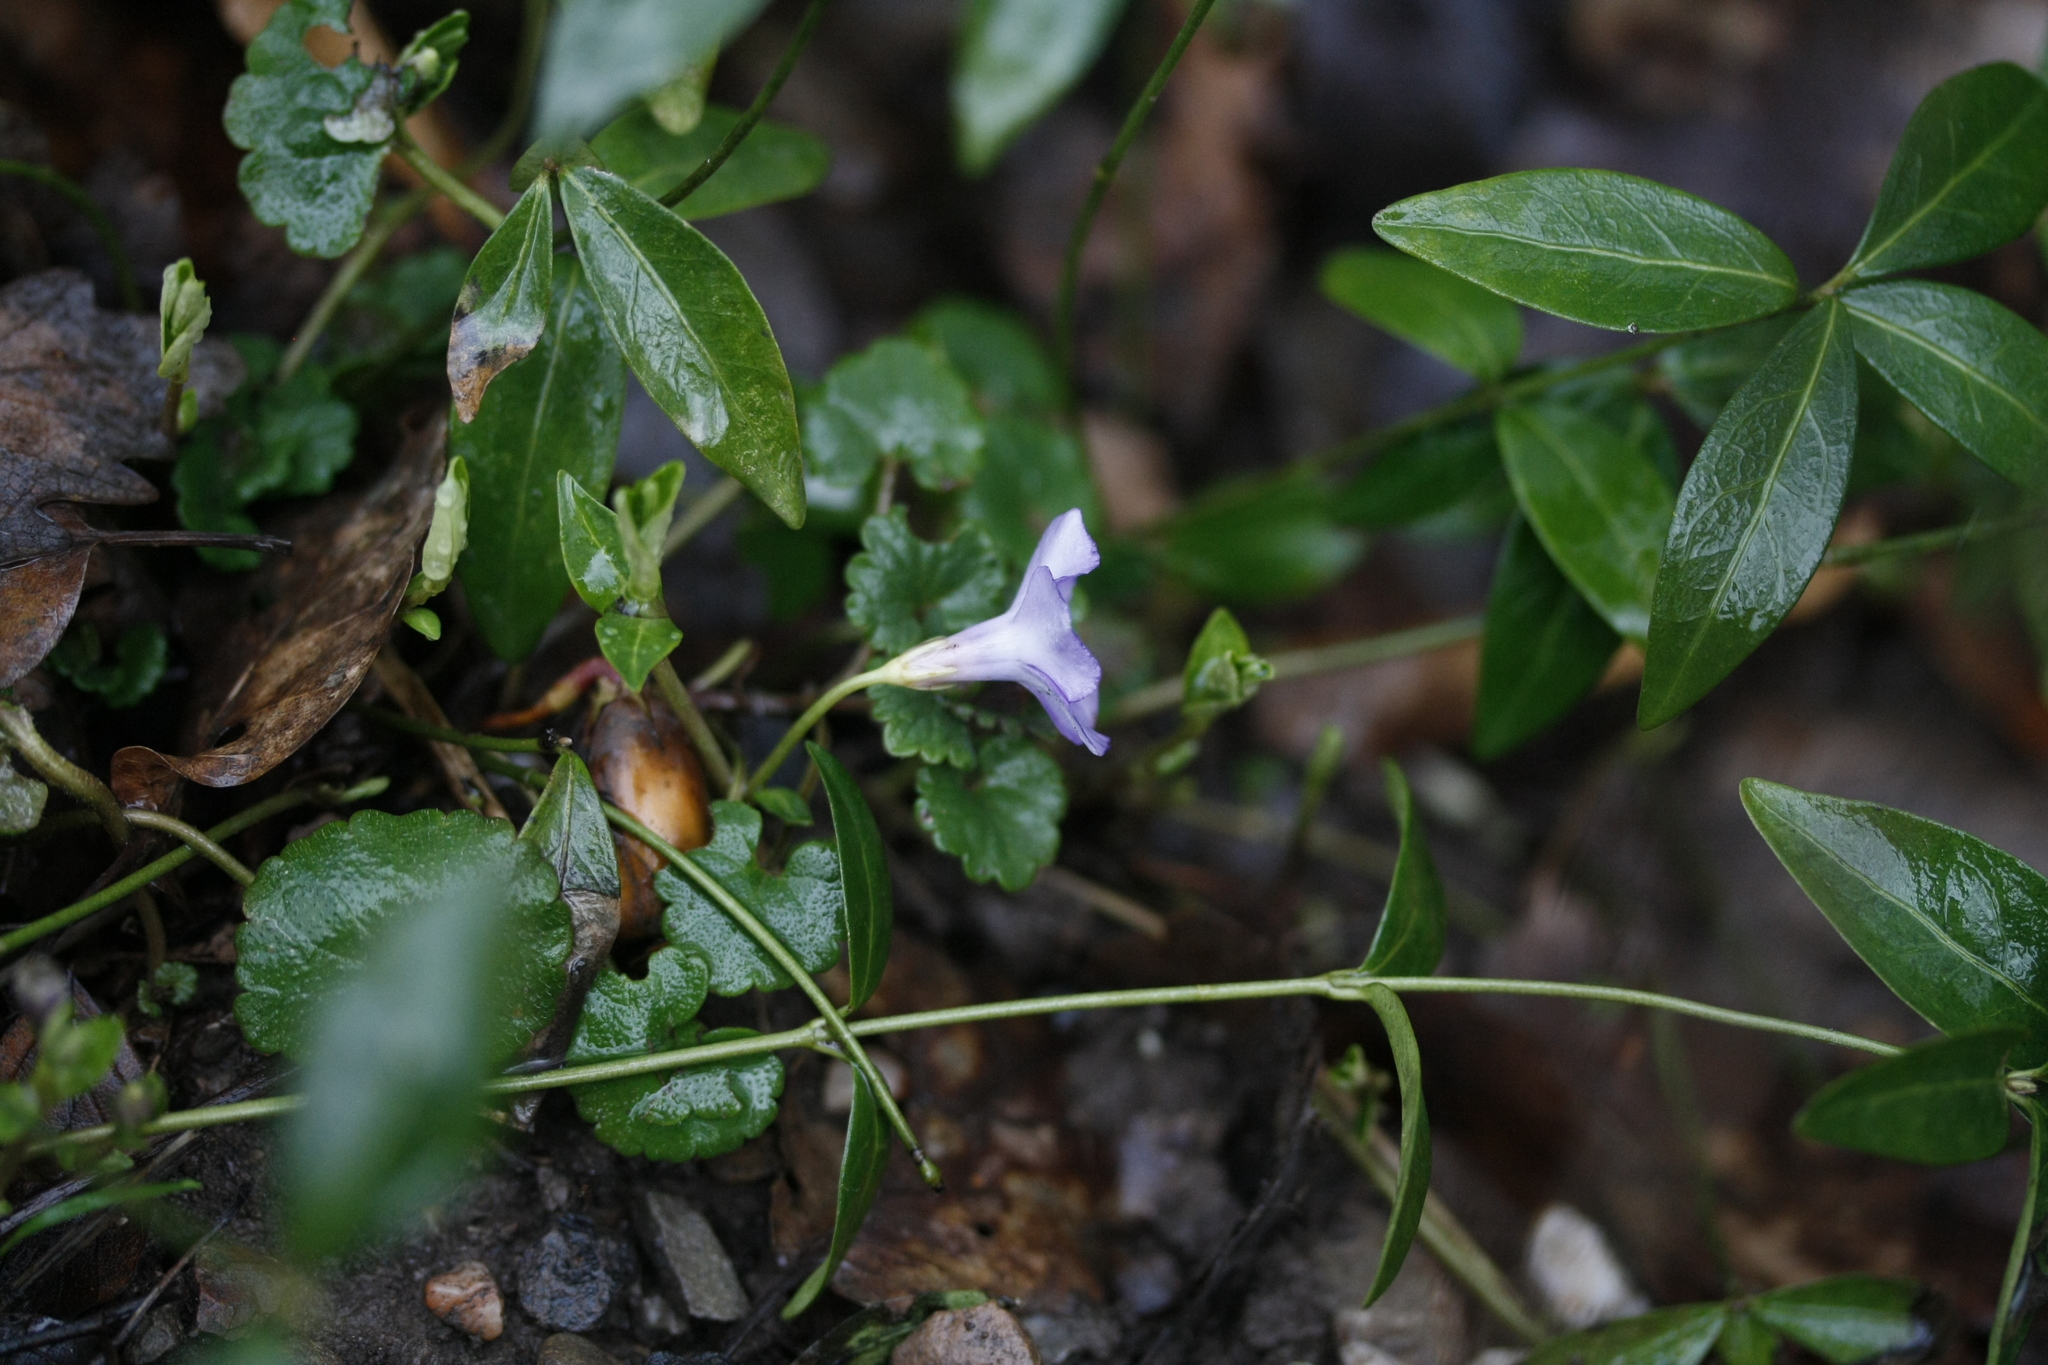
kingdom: Plantae
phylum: Tracheophyta
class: Magnoliopsida
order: Gentianales
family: Apocynaceae
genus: Vinca
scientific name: Vinca minor
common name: Lesser periwinkle
